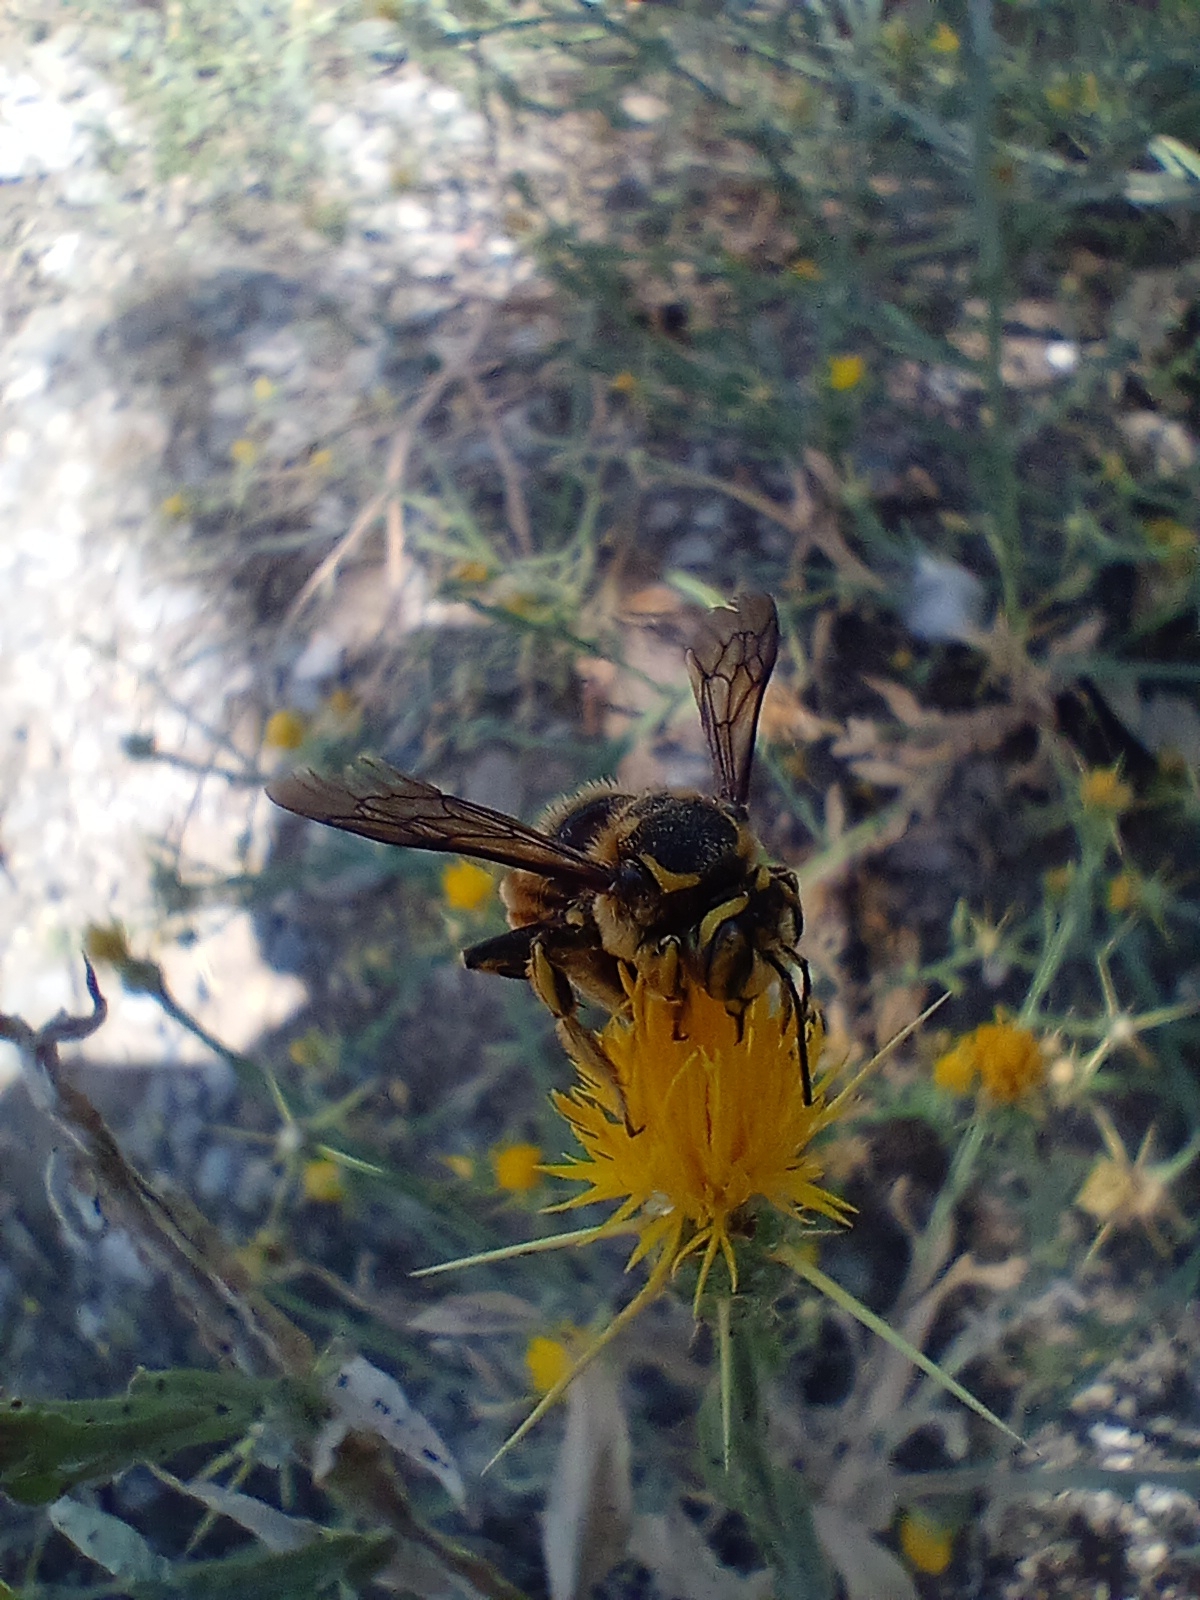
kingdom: Animalia
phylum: Arthropoda
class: Insecta
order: Hymenoptera
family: Megachilidae
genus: Anthidium
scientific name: Anthidium florentinum
